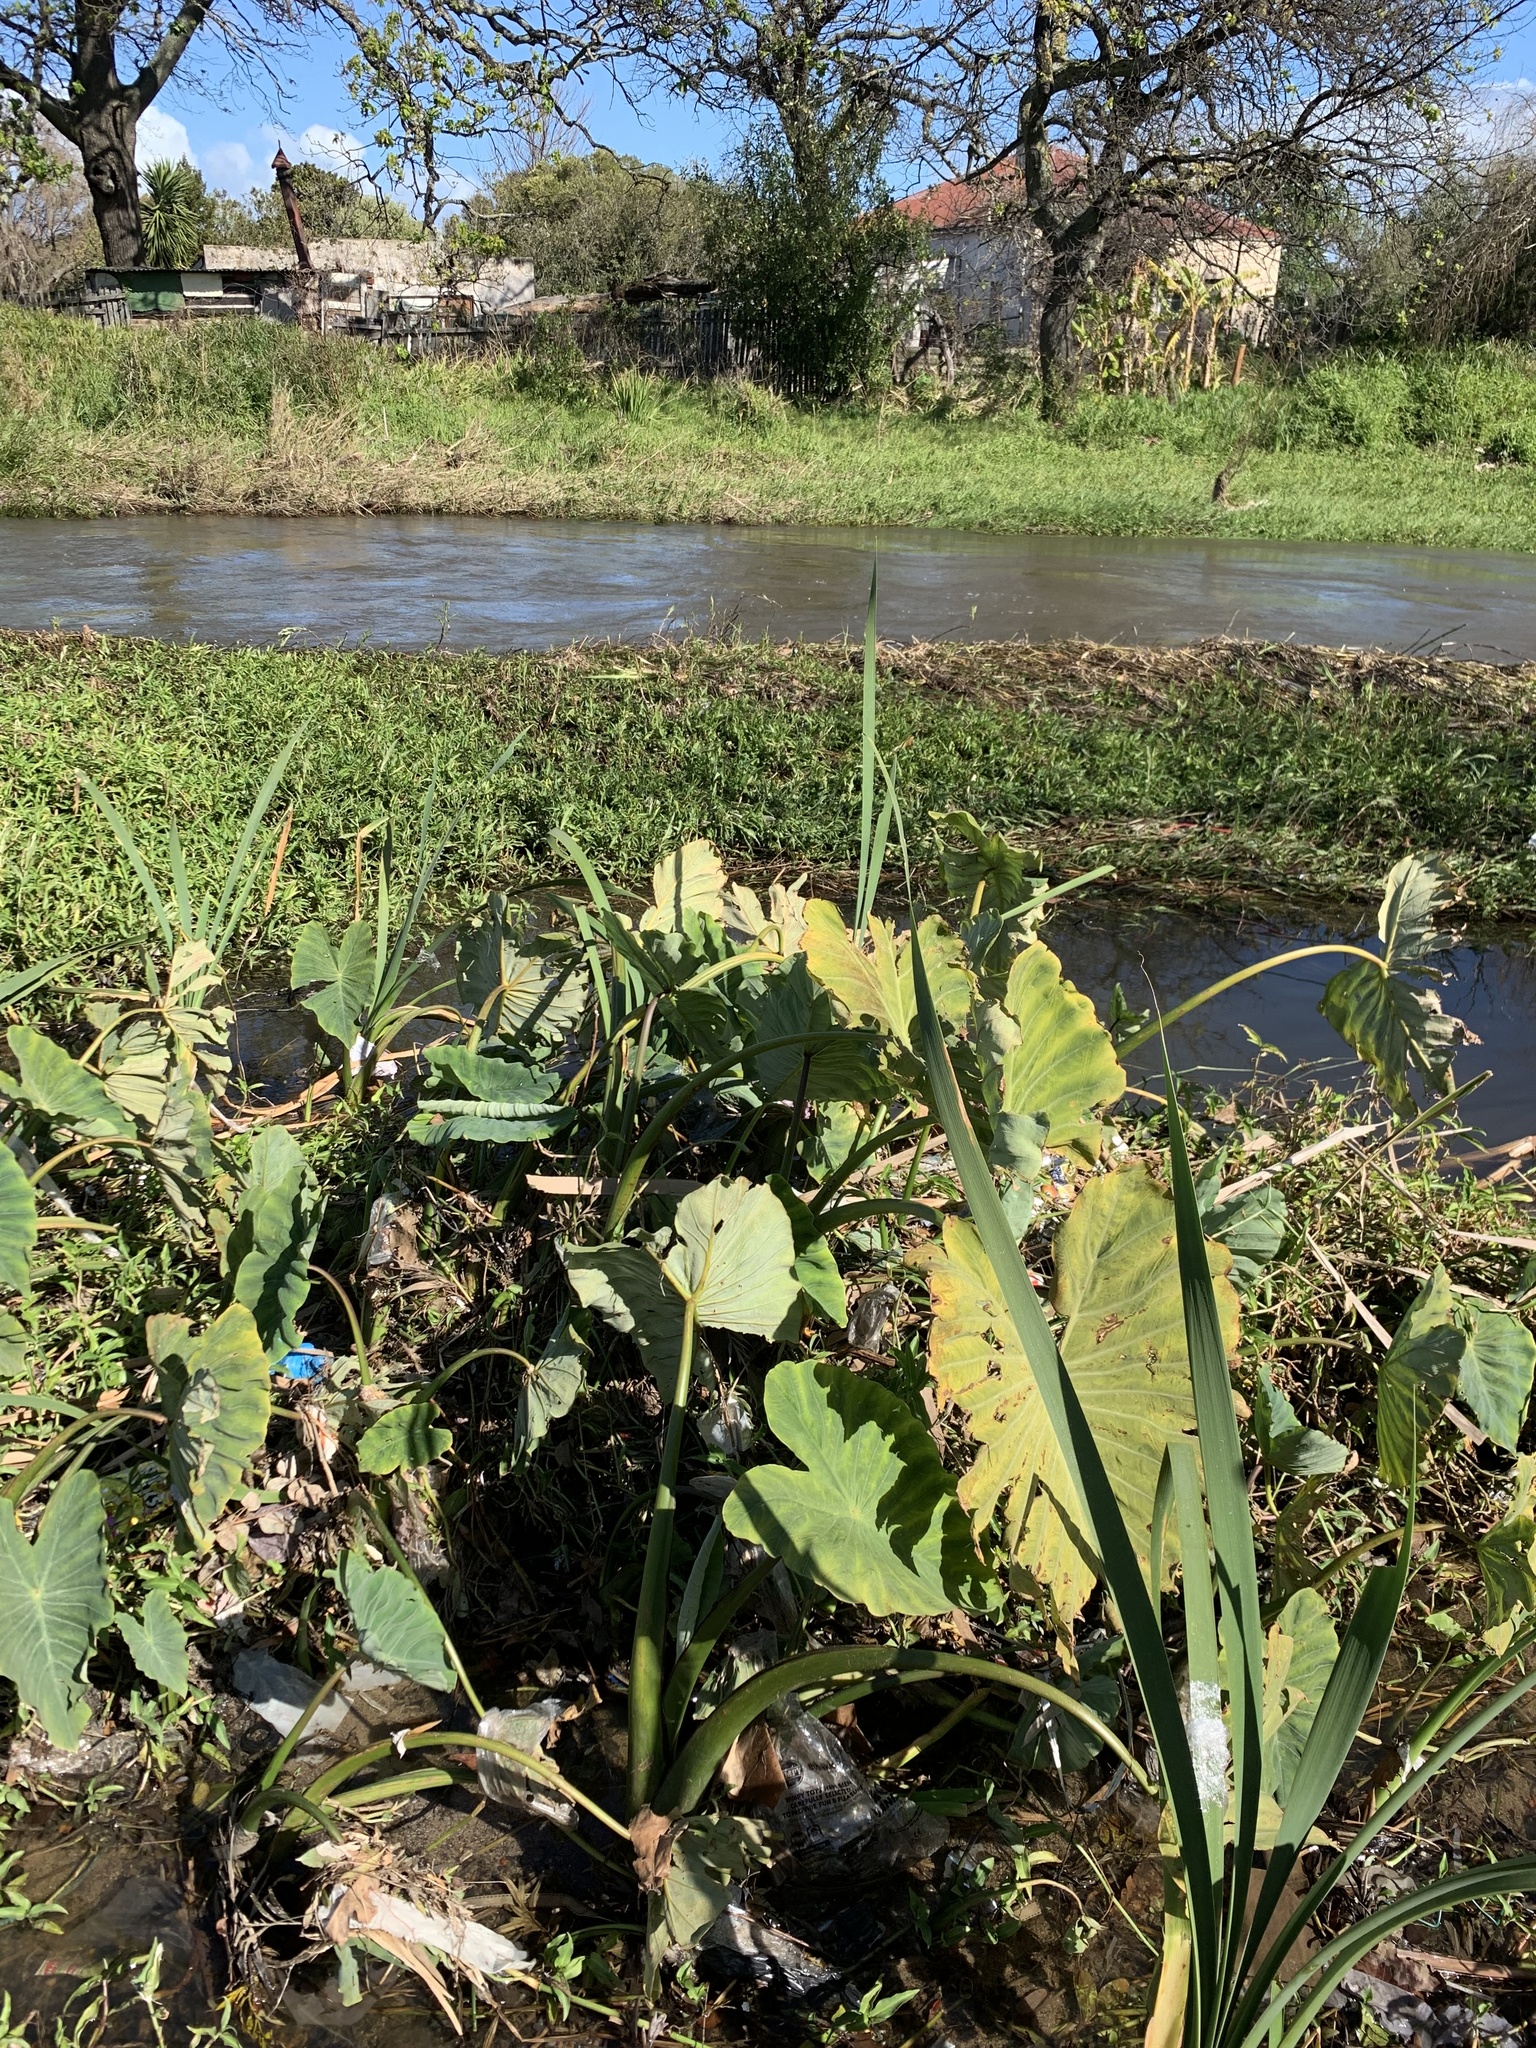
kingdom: Plantae
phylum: Tracheophyta
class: Liliopsida
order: Alismatales
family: Araceae
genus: Colocasia
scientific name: Colocasia esculenta
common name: Taro
